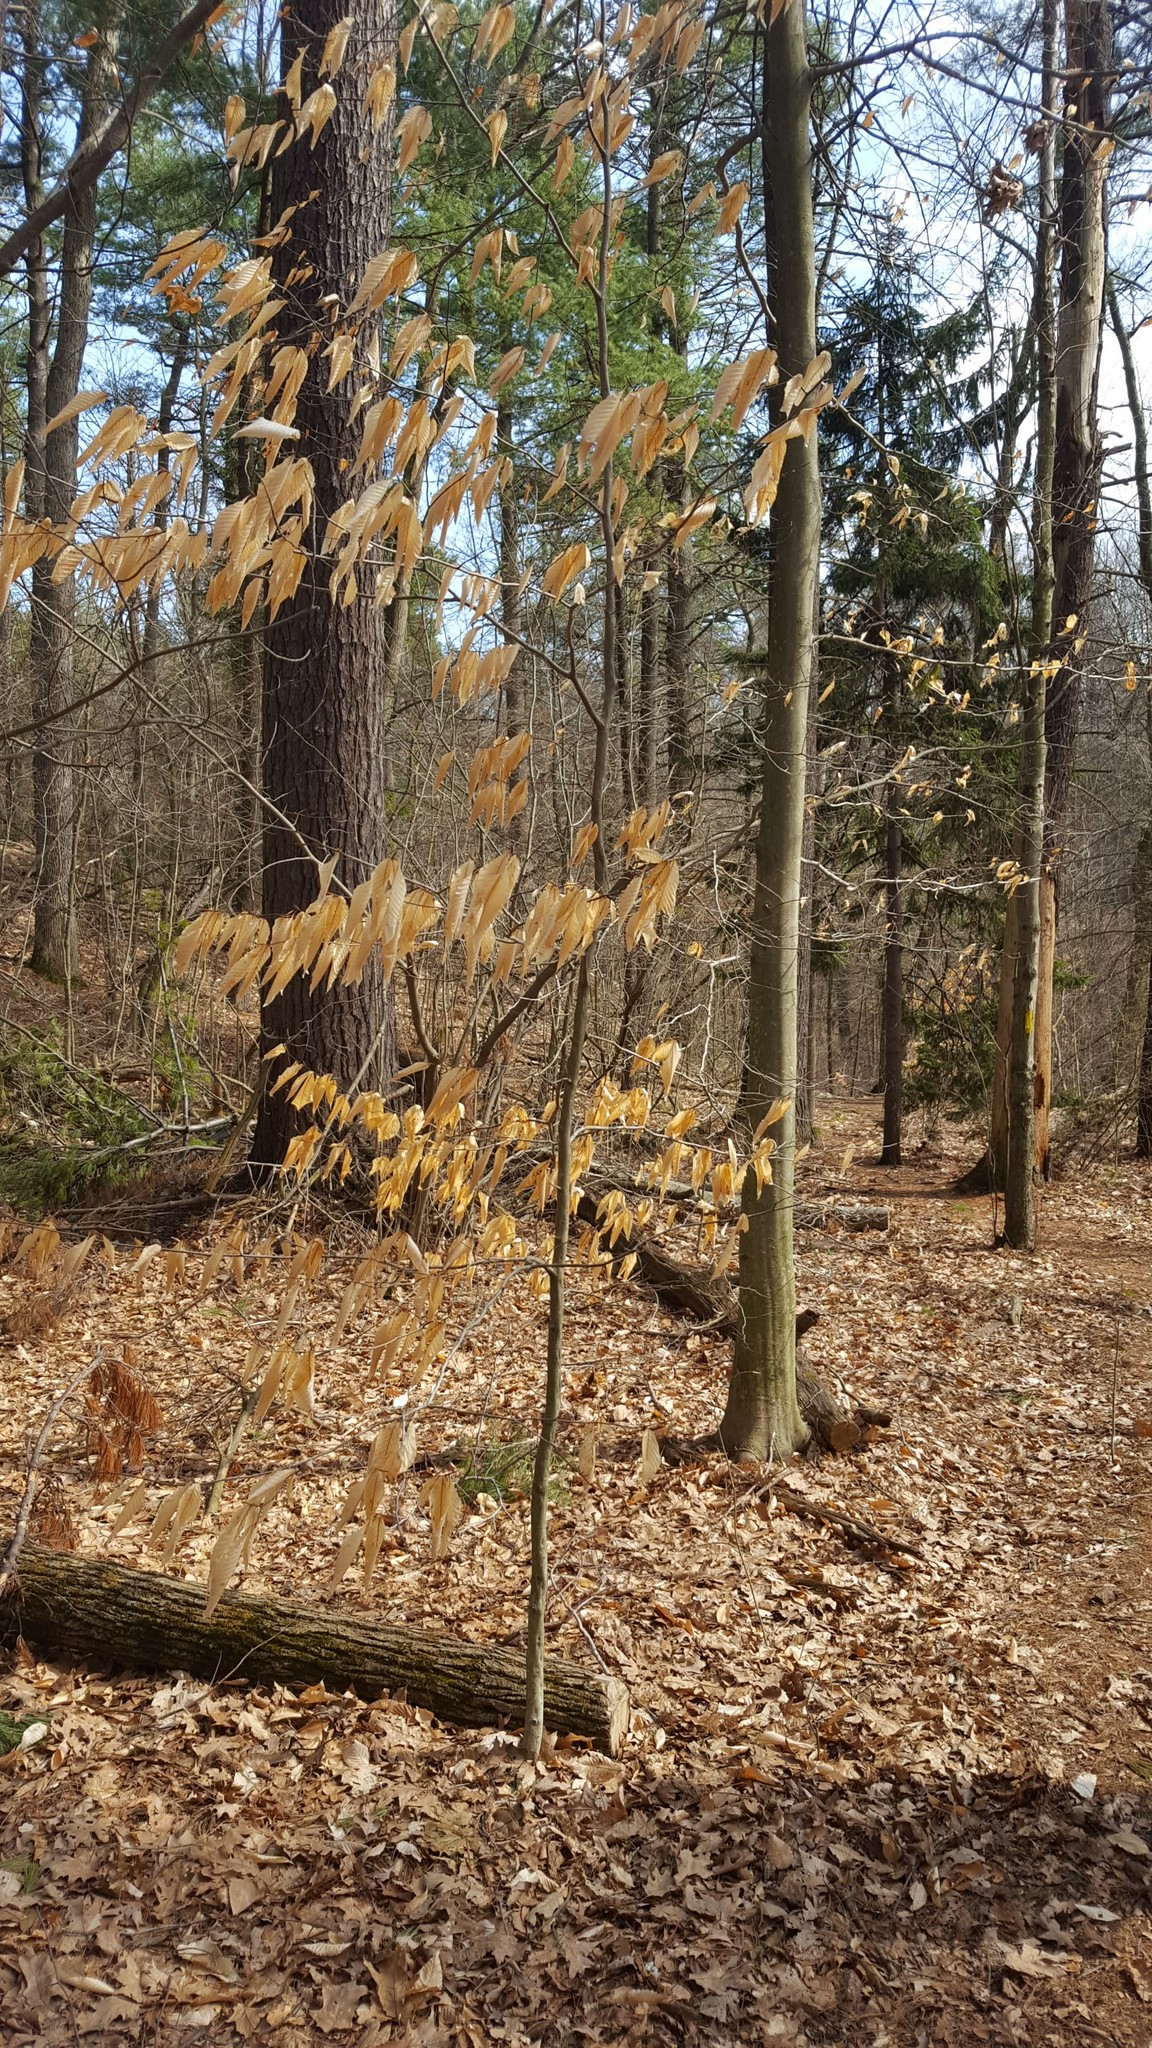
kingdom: Plantae
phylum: Tracheophyta
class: Magnoliopsida
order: Fagales
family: Fagaceae
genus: Fagus
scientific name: Fagus grandifolia
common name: American beech
